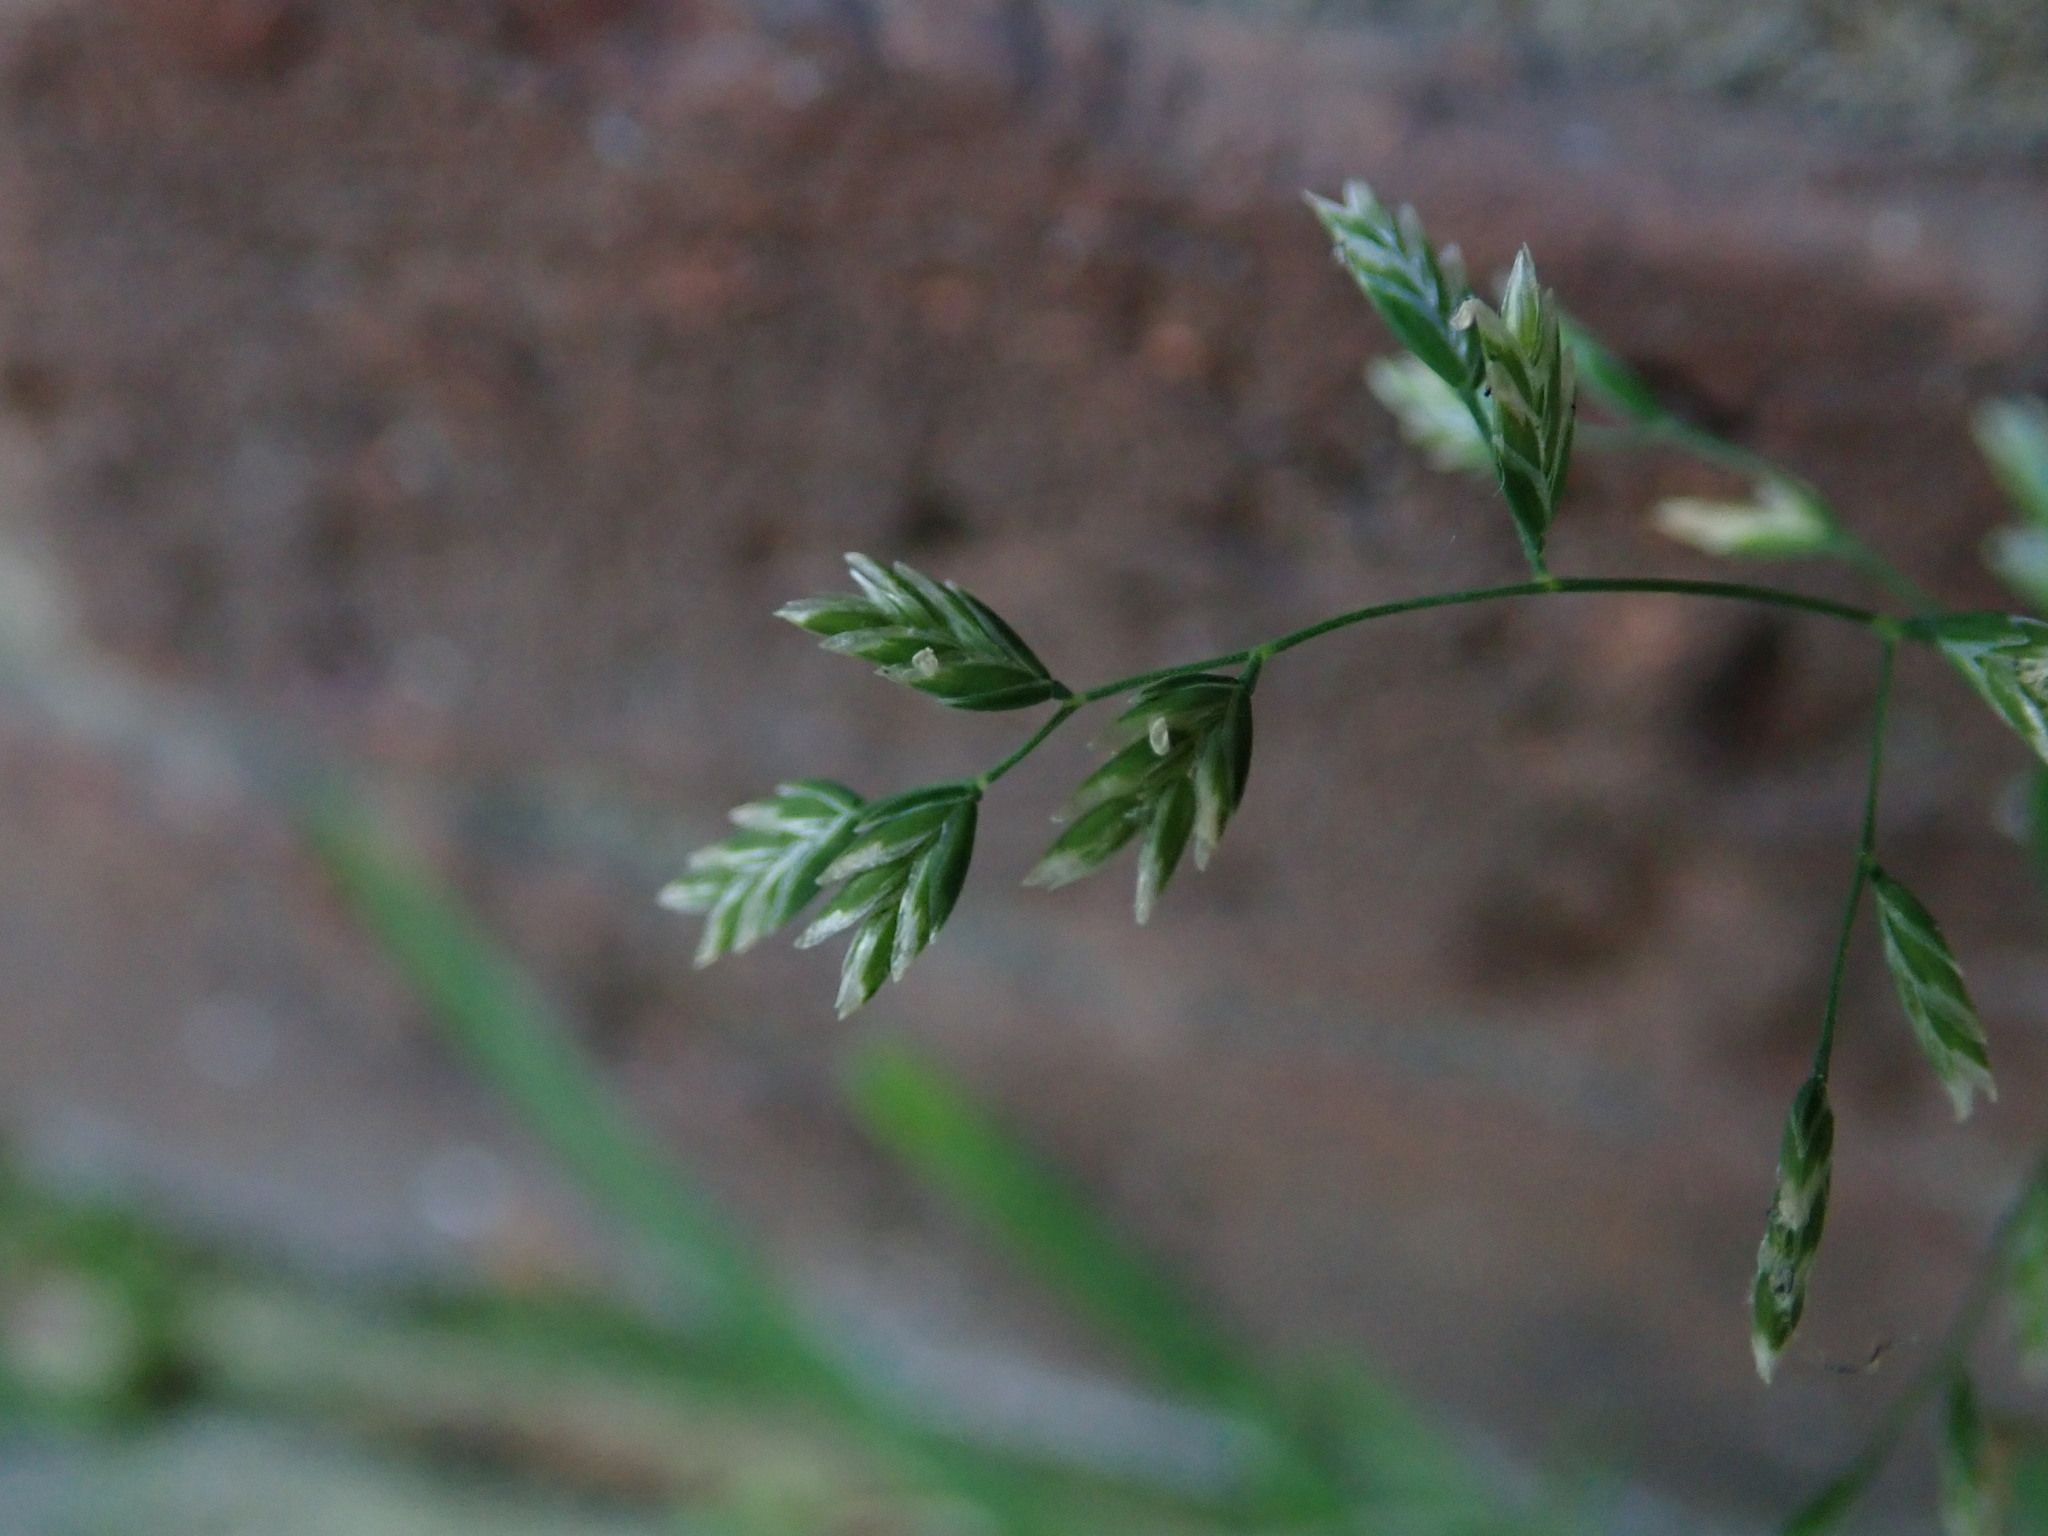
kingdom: Plantae
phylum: Tracheophyta
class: Liliopsida
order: Poales
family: Poaceae
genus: Poa
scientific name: Poa annua
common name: Annual bluegrass
